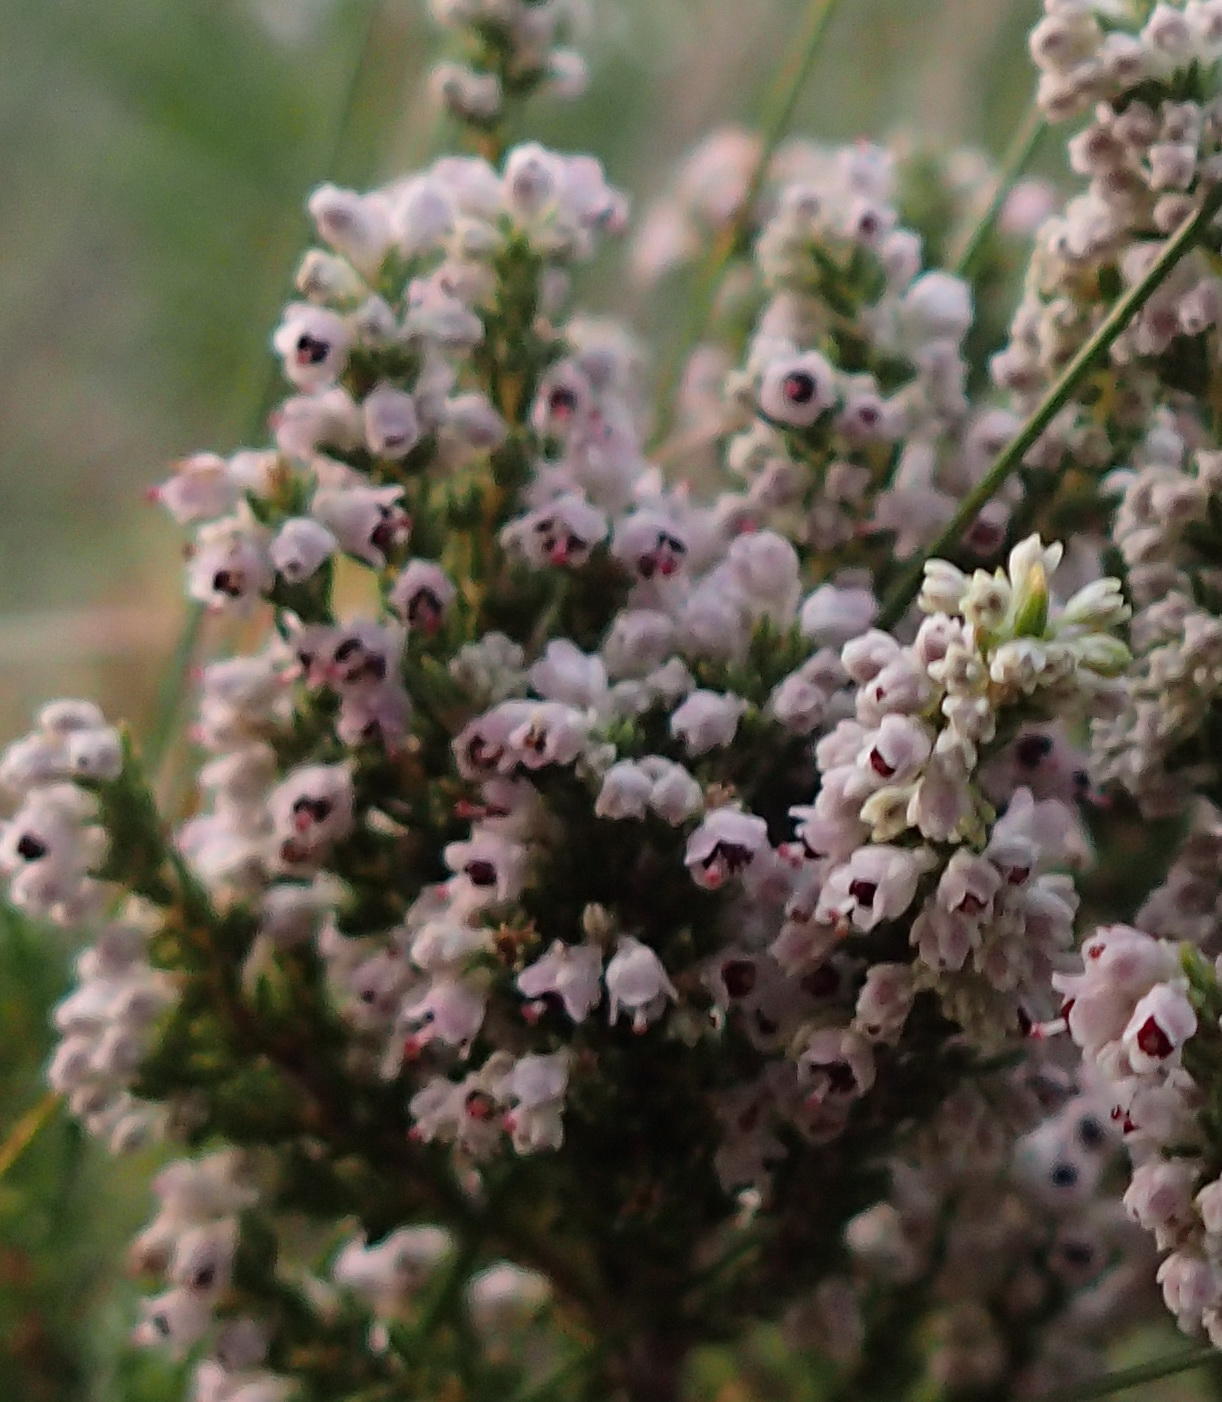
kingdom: Plantae
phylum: Tracheophyta
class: Magnoliopsida
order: Ericales
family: Ericaceae
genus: Erica
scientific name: Erica hispidula
